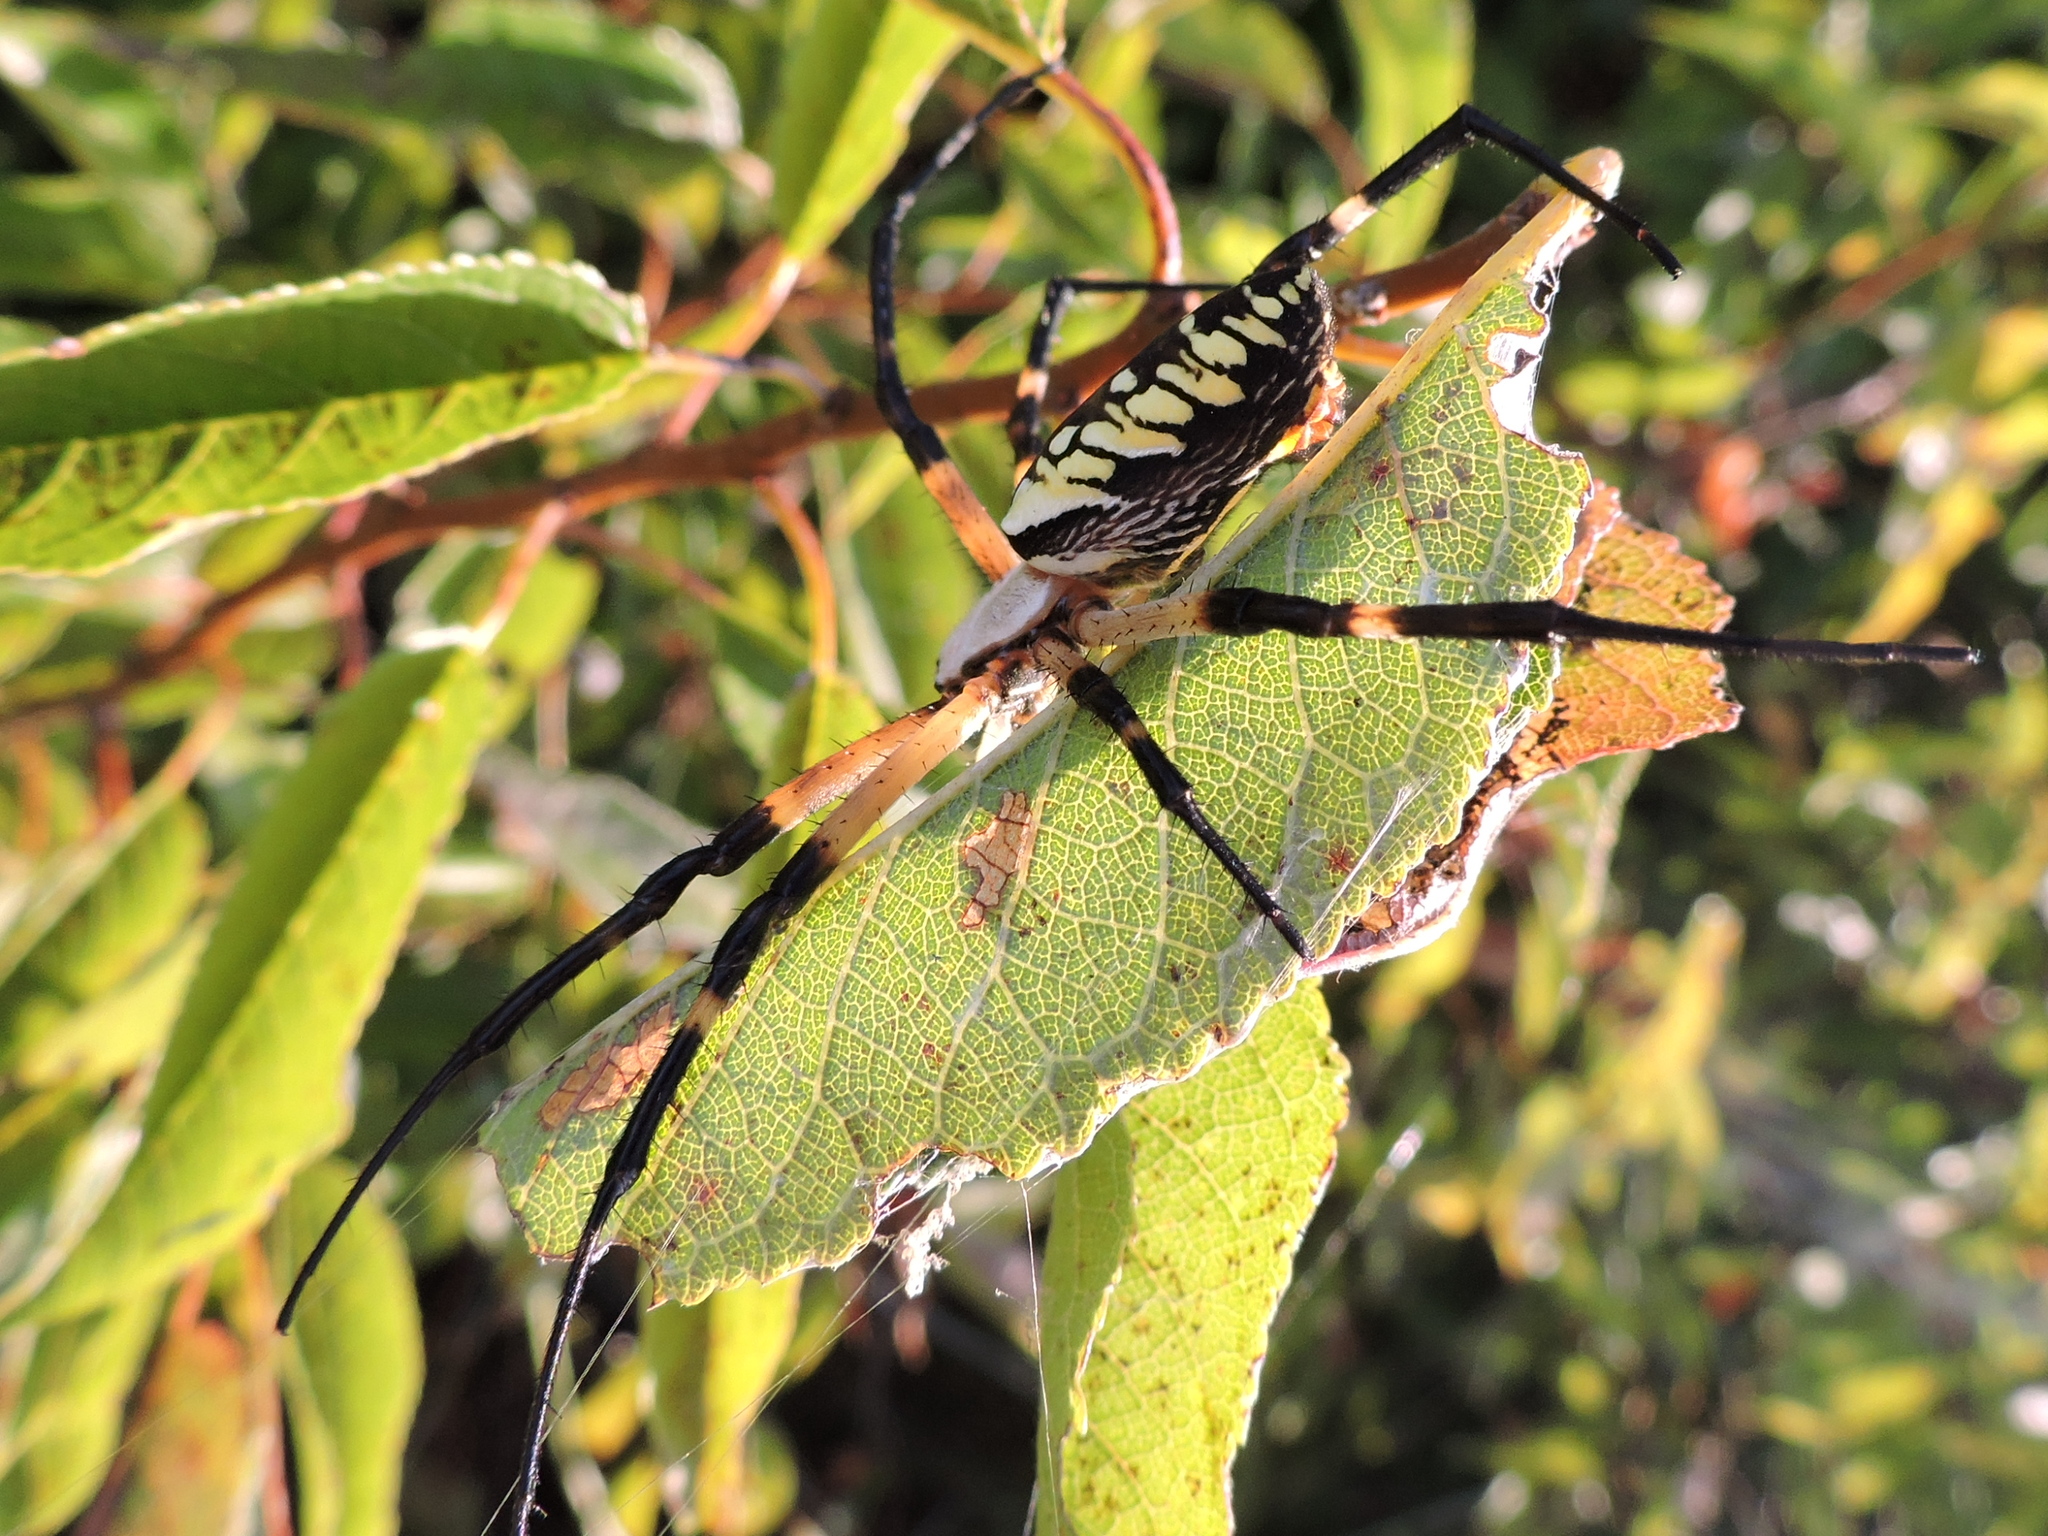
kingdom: Animalia
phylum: Arthropoda
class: Arachnida
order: Araneae
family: Araneidae
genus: Argiope
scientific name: Argiope aurantia
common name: Orb weavers
